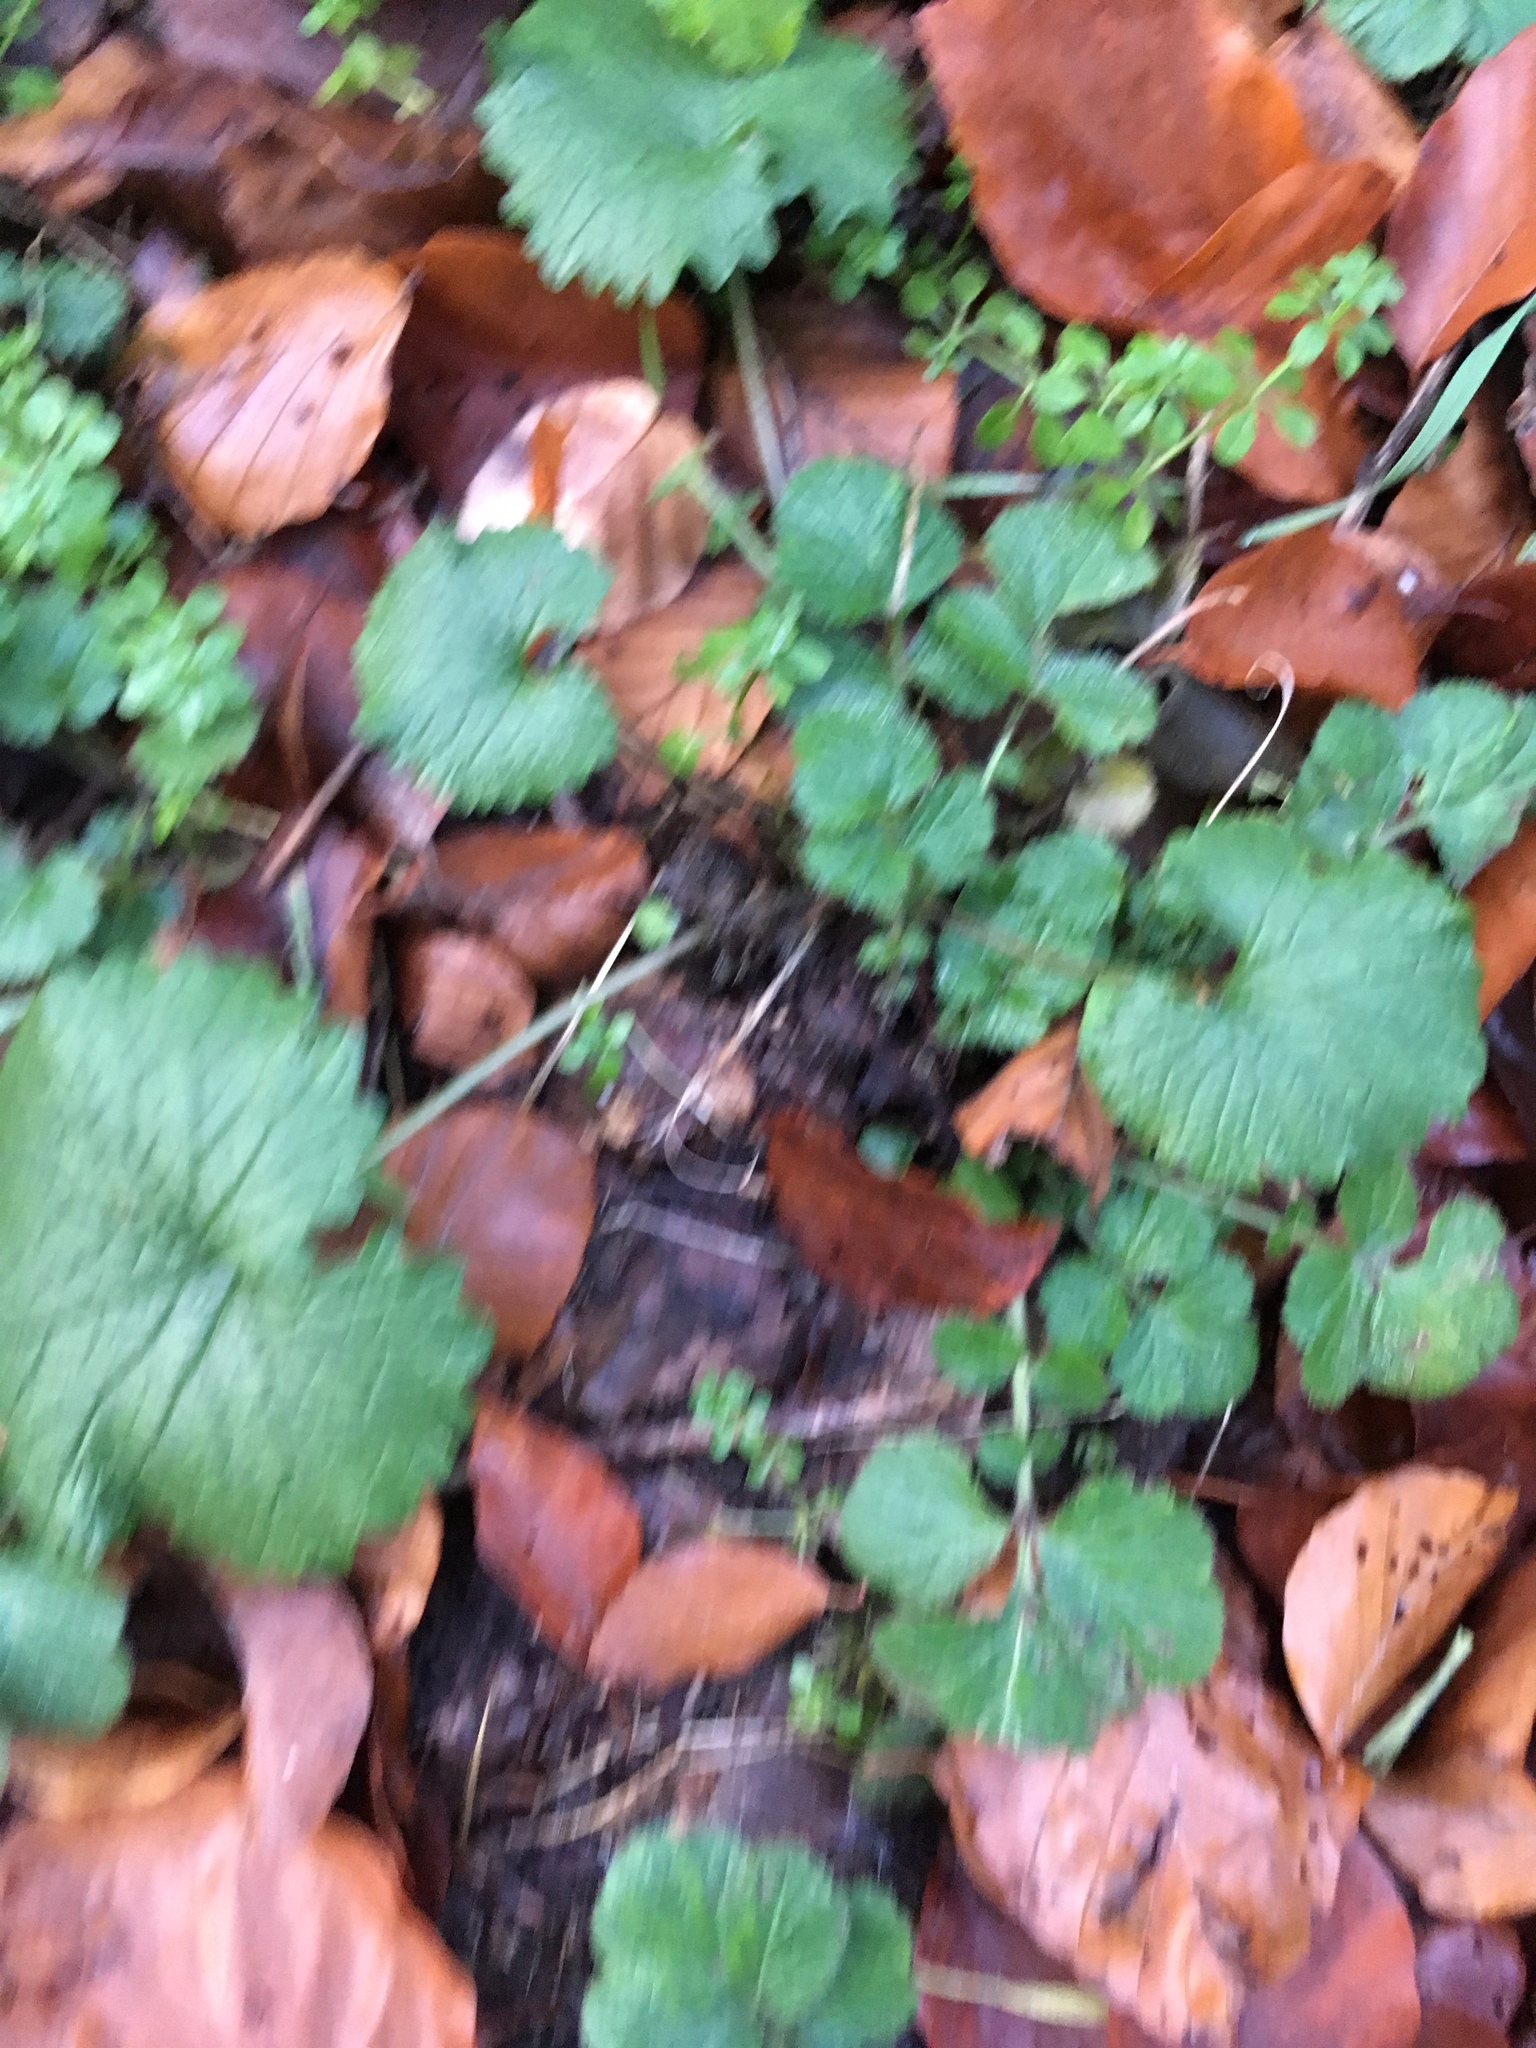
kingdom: Plantae
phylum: Tracheophyta
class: Magnoliopsida
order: Brassicales
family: Brassicaceae
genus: Alliaria
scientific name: Alliaria petiolata
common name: Garlic mustard
